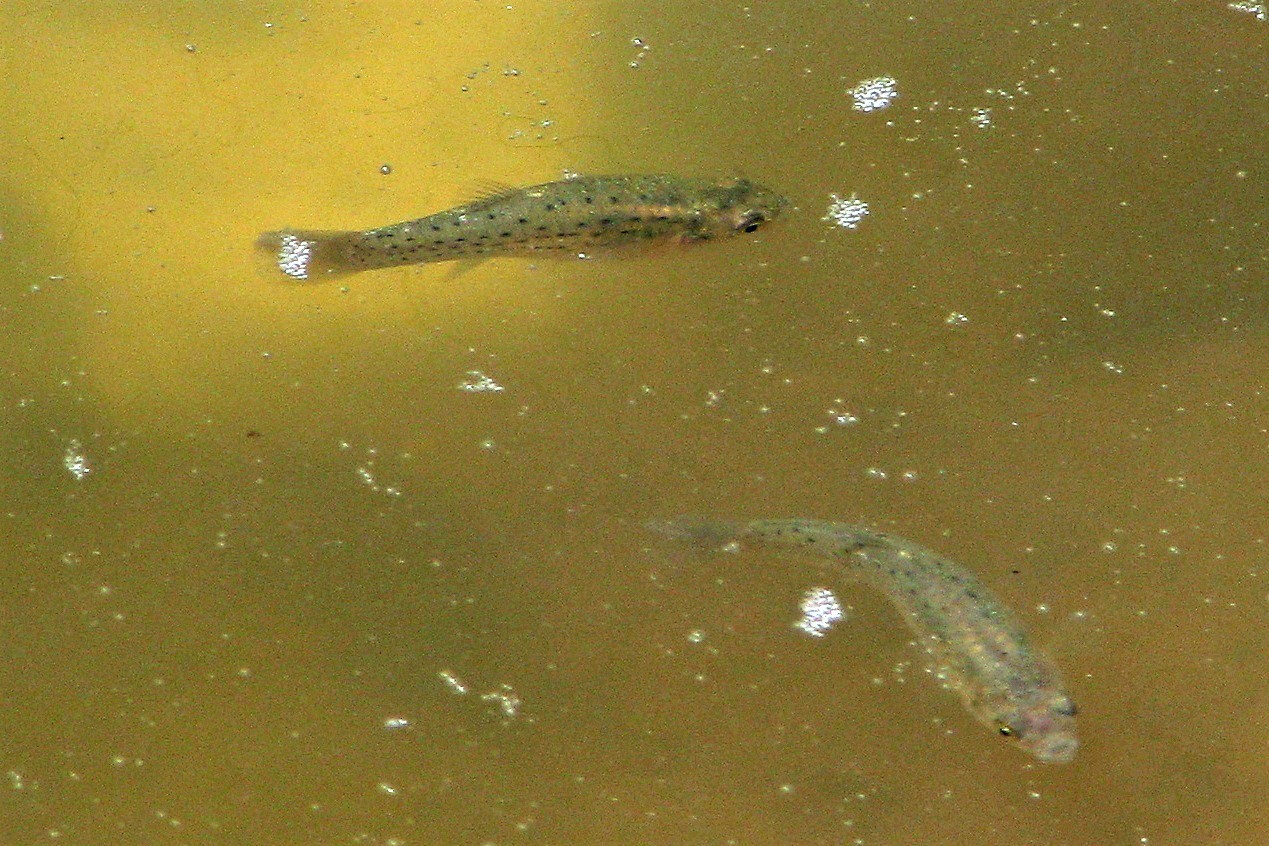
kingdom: Animalia
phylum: Chordata
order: Cyprinodontiformes
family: Anablepidae
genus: Jenynsia
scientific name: Jenynsia lineata
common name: Onesided livebearer
